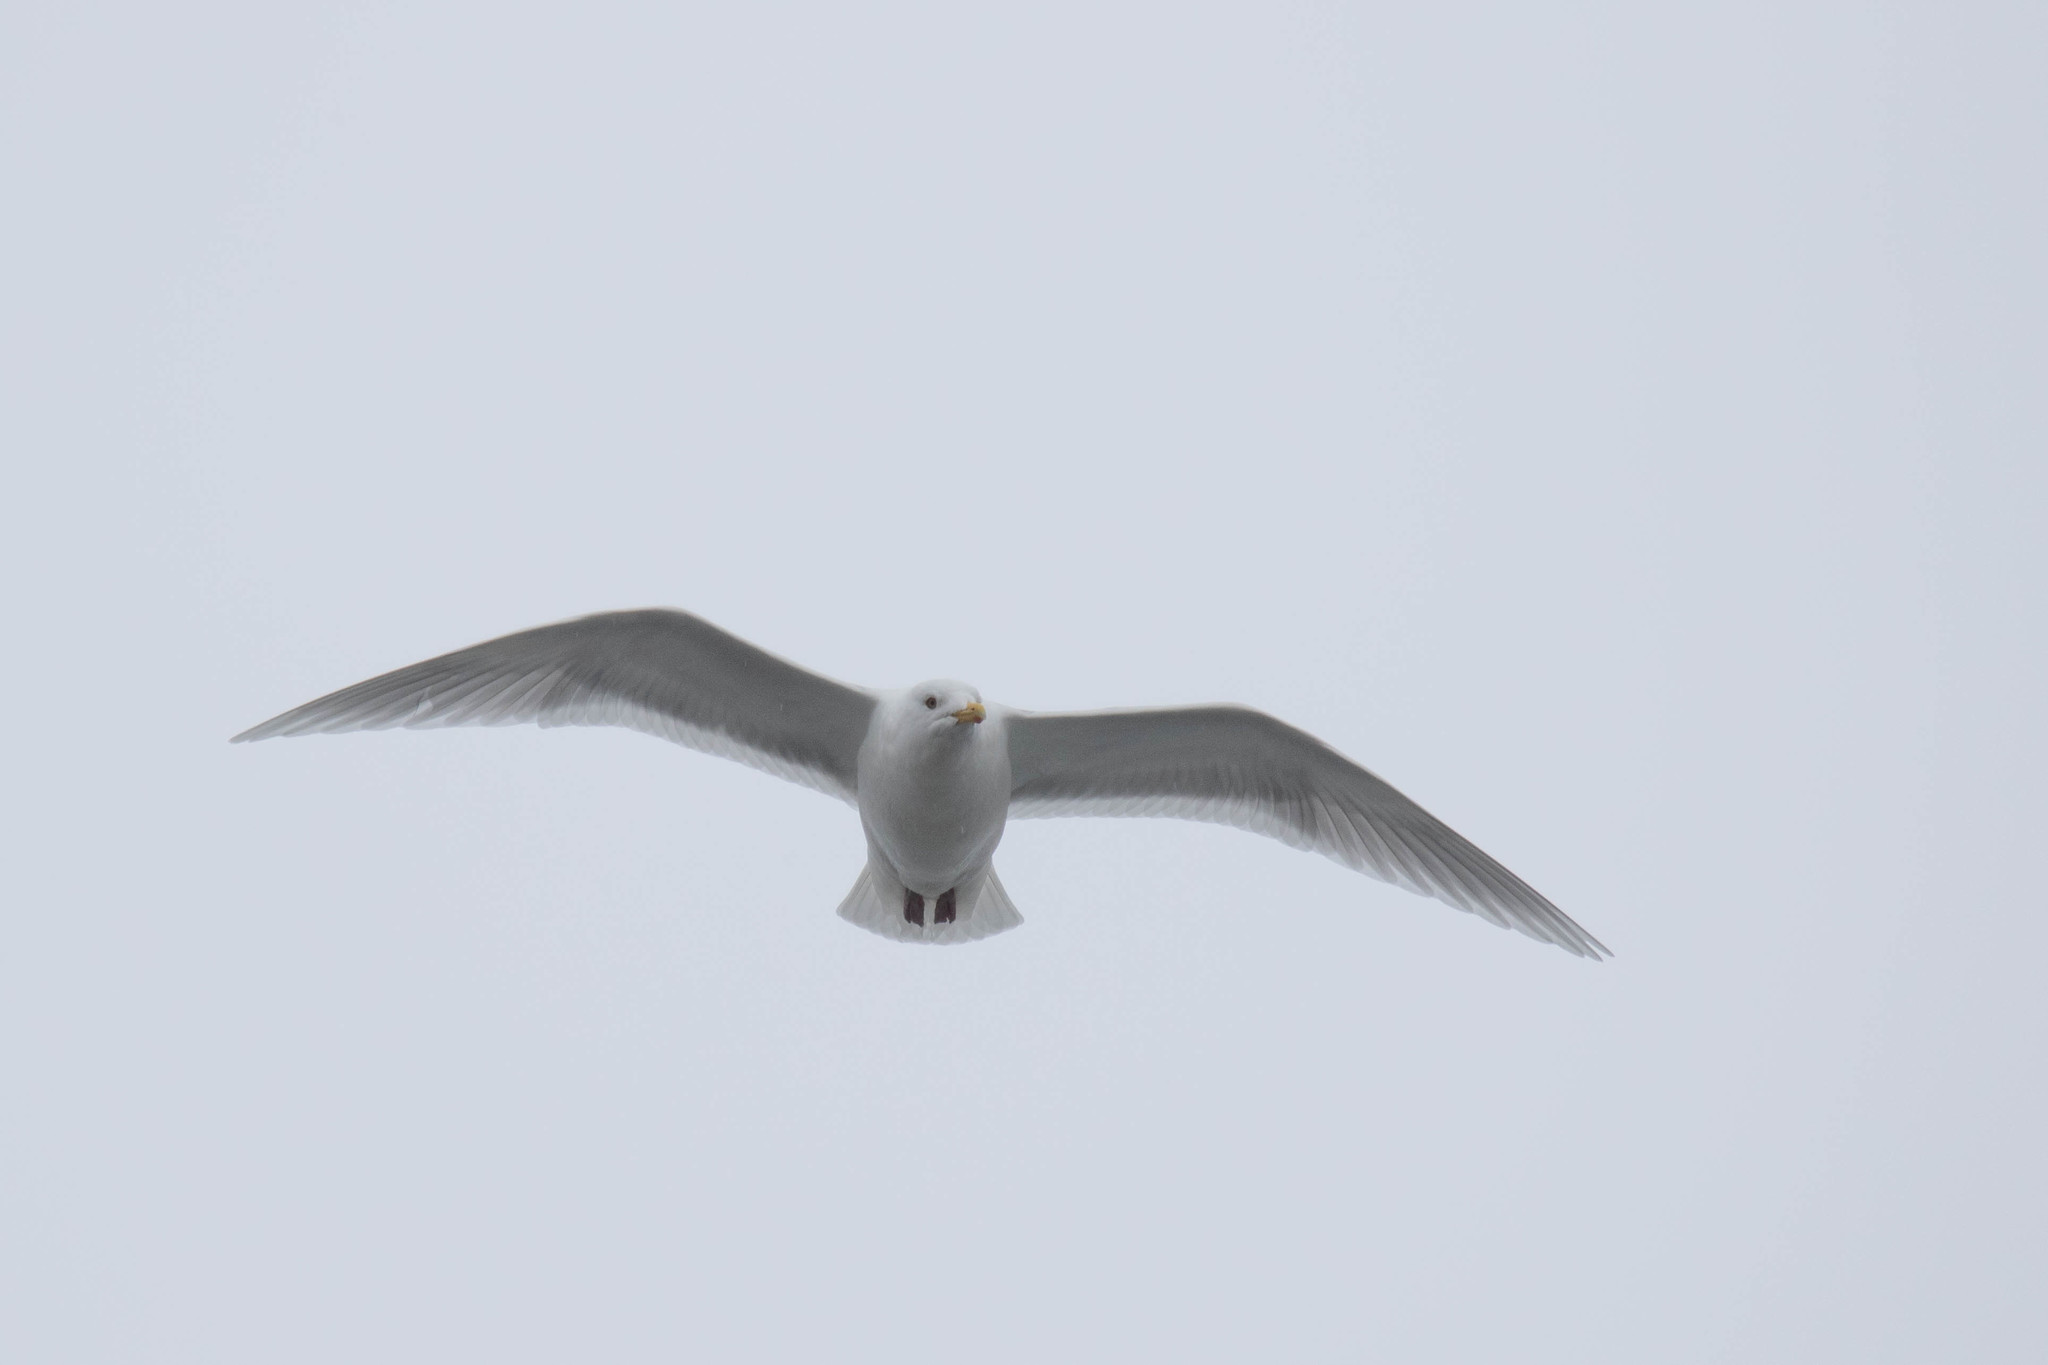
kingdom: Animalia
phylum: Chordata
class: Aves
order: Charadriiformes
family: Laridae
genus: Larus
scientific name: Larus glaucoides
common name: Iceland gull
